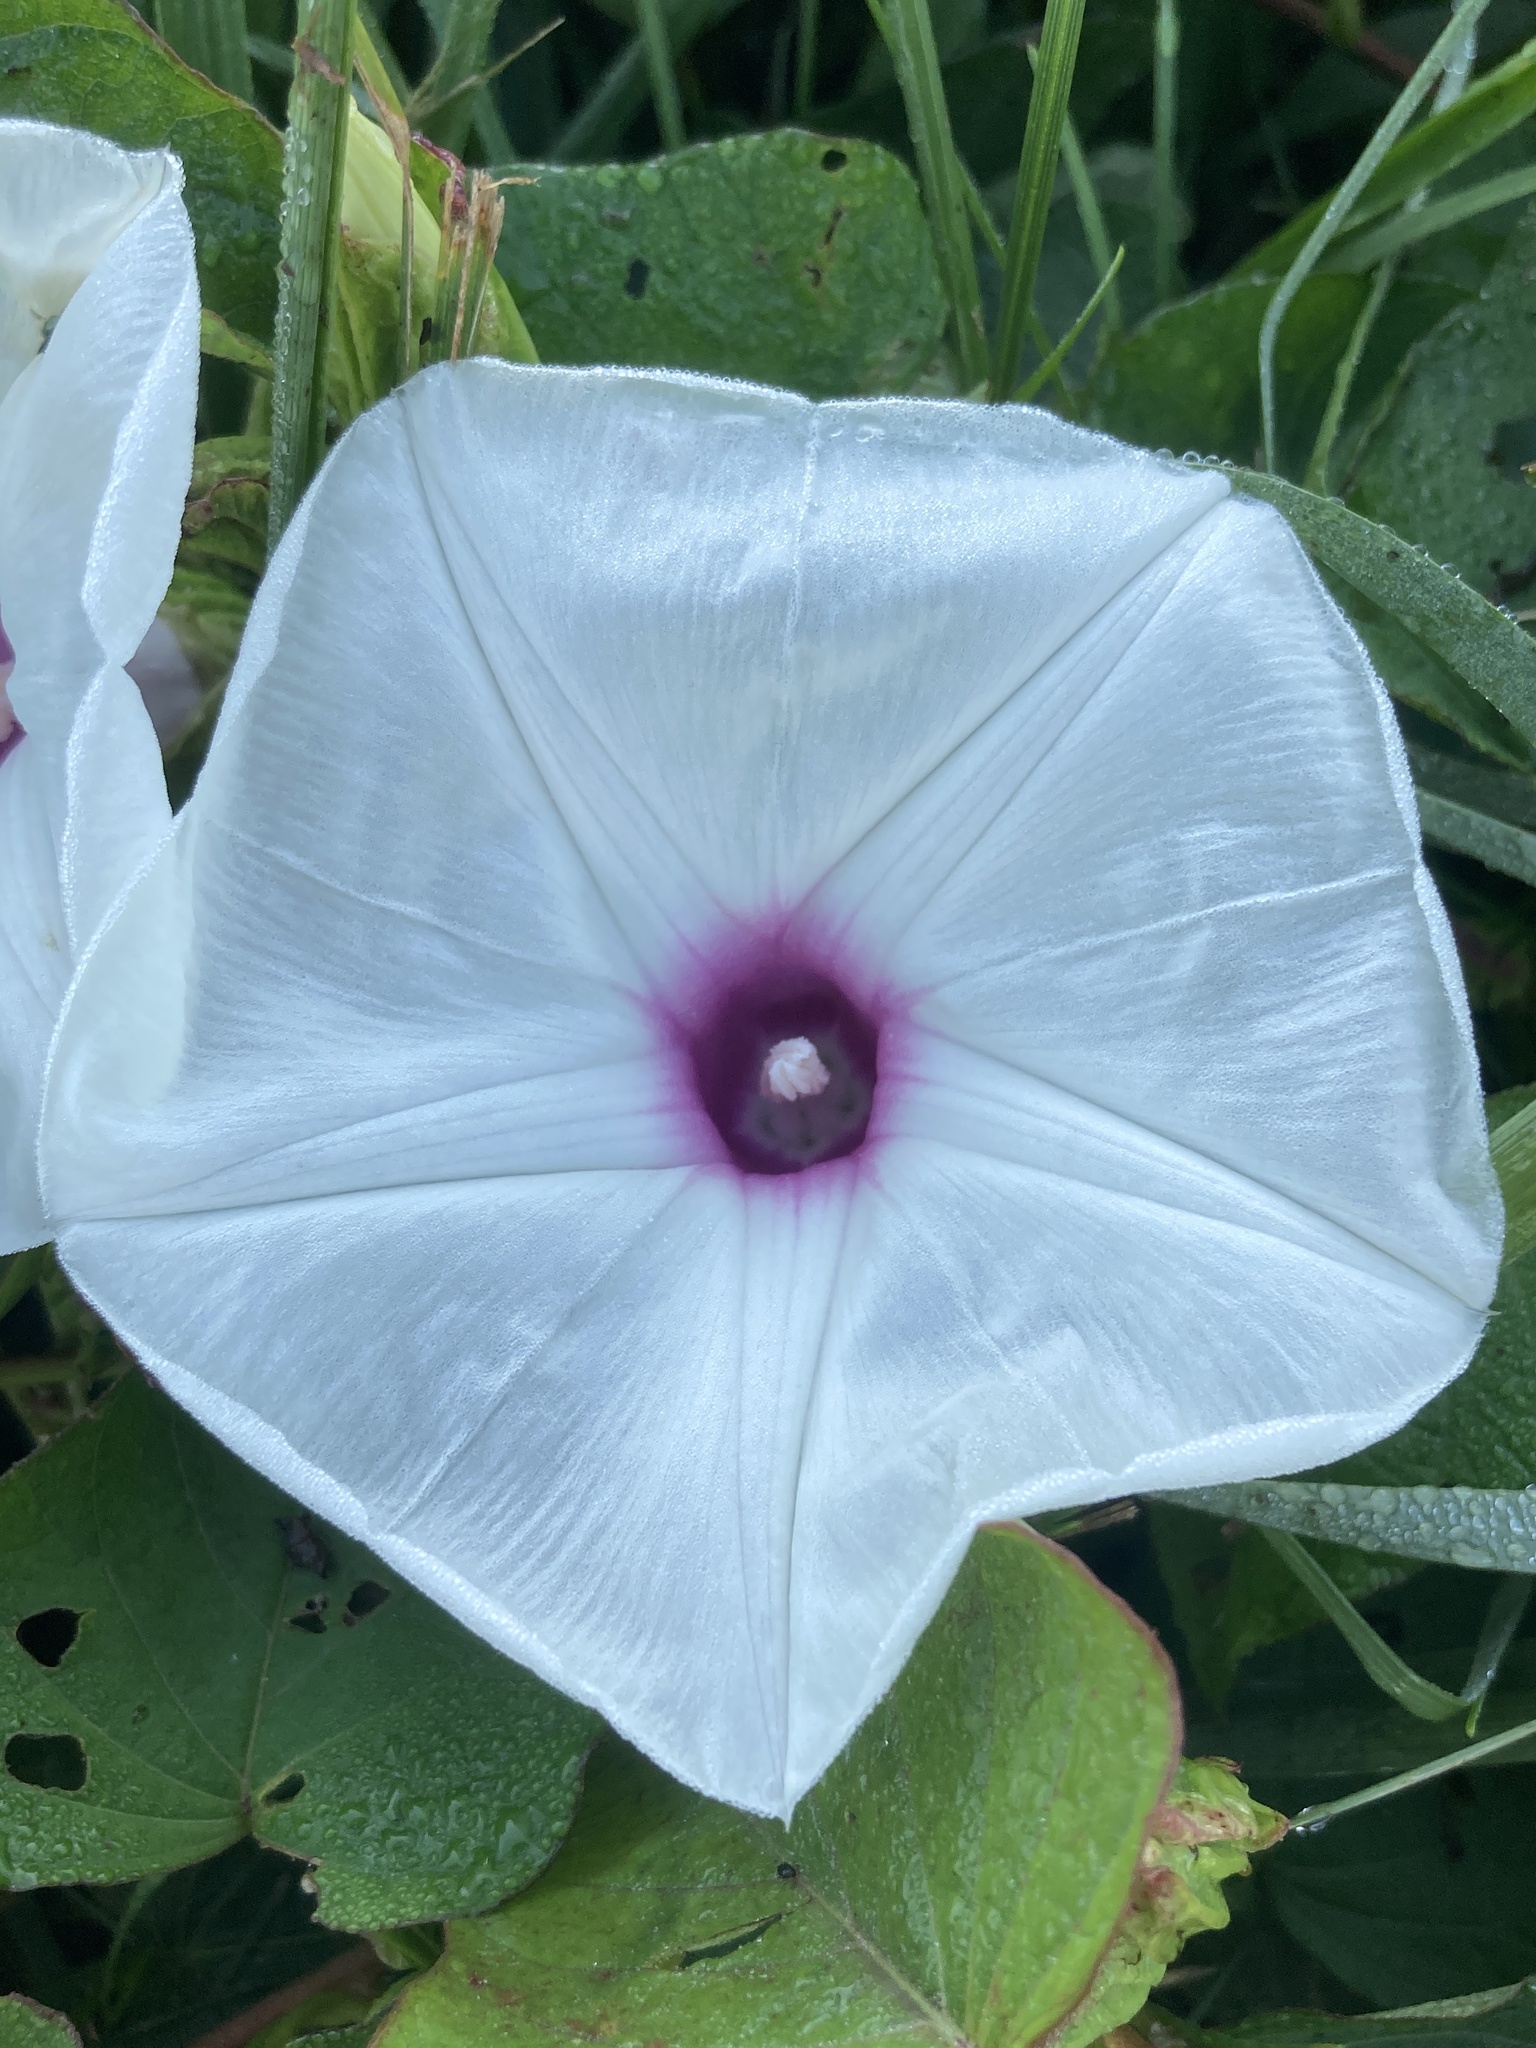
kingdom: Plantae
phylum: Tracheophyta
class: Magnoliopsida
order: Solanales
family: Convolvulaceae
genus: Ipomoea
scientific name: Ipomoea pandurata
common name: Man-of-the-earth
